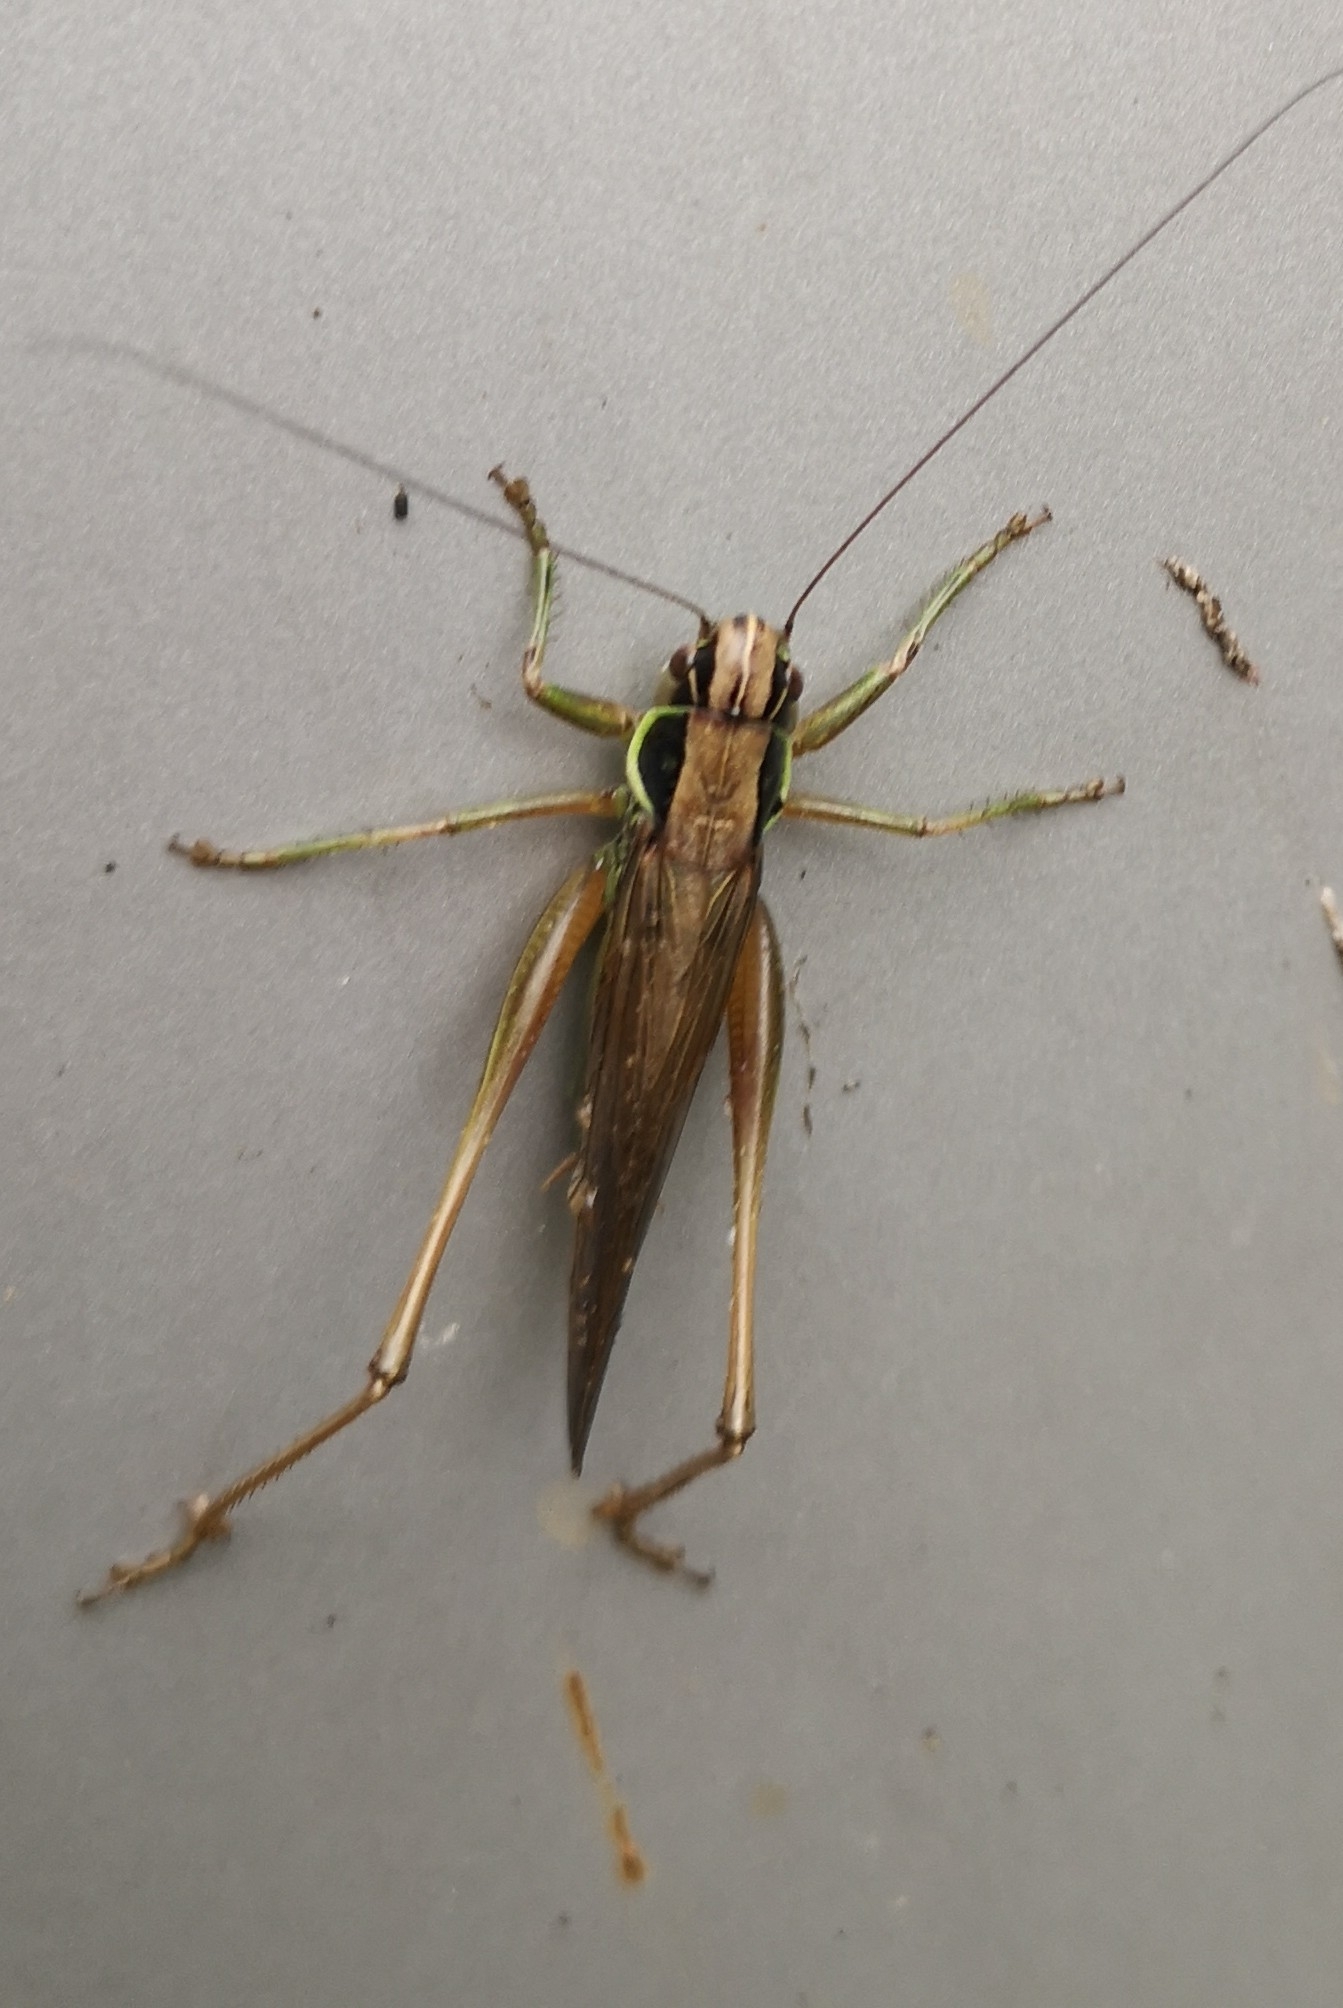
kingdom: Animalia
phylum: Arthropoda
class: Insecta
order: Orthoptera
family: Tettigoniidae
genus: Roeseliana
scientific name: Roeseliana roeselii
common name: Roesel's bush cricket
